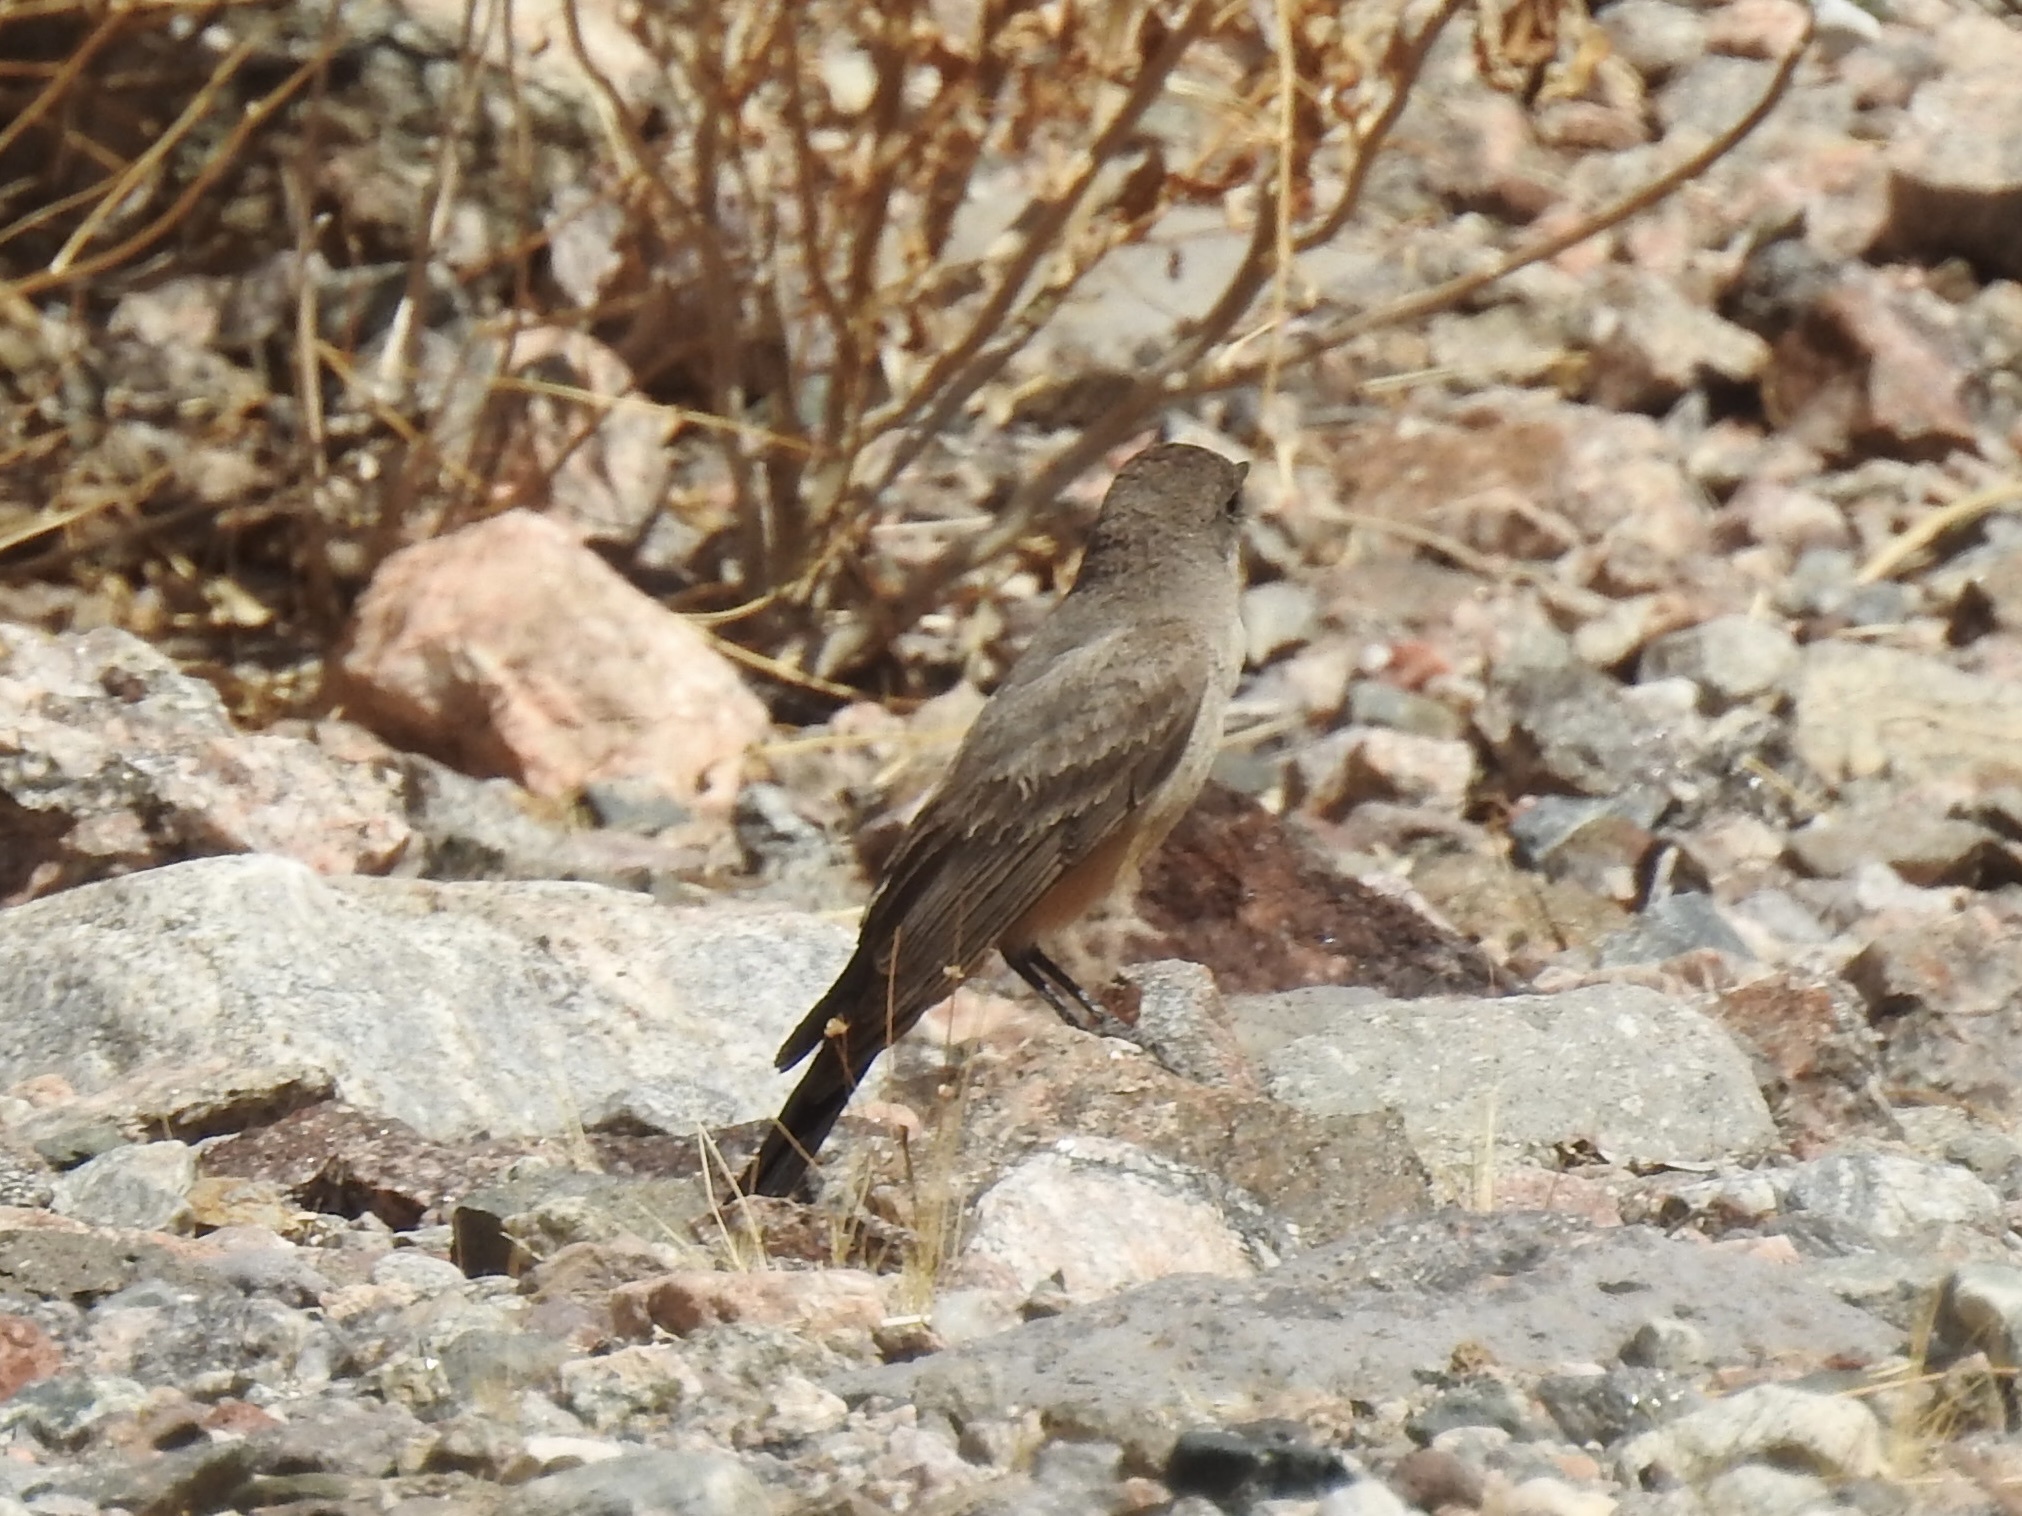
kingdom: Animalia
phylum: Chordata
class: Aves
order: Passeriformes
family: Tyrannidae
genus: Sayornis
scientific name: Sayornis saya
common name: Say's phoebe
